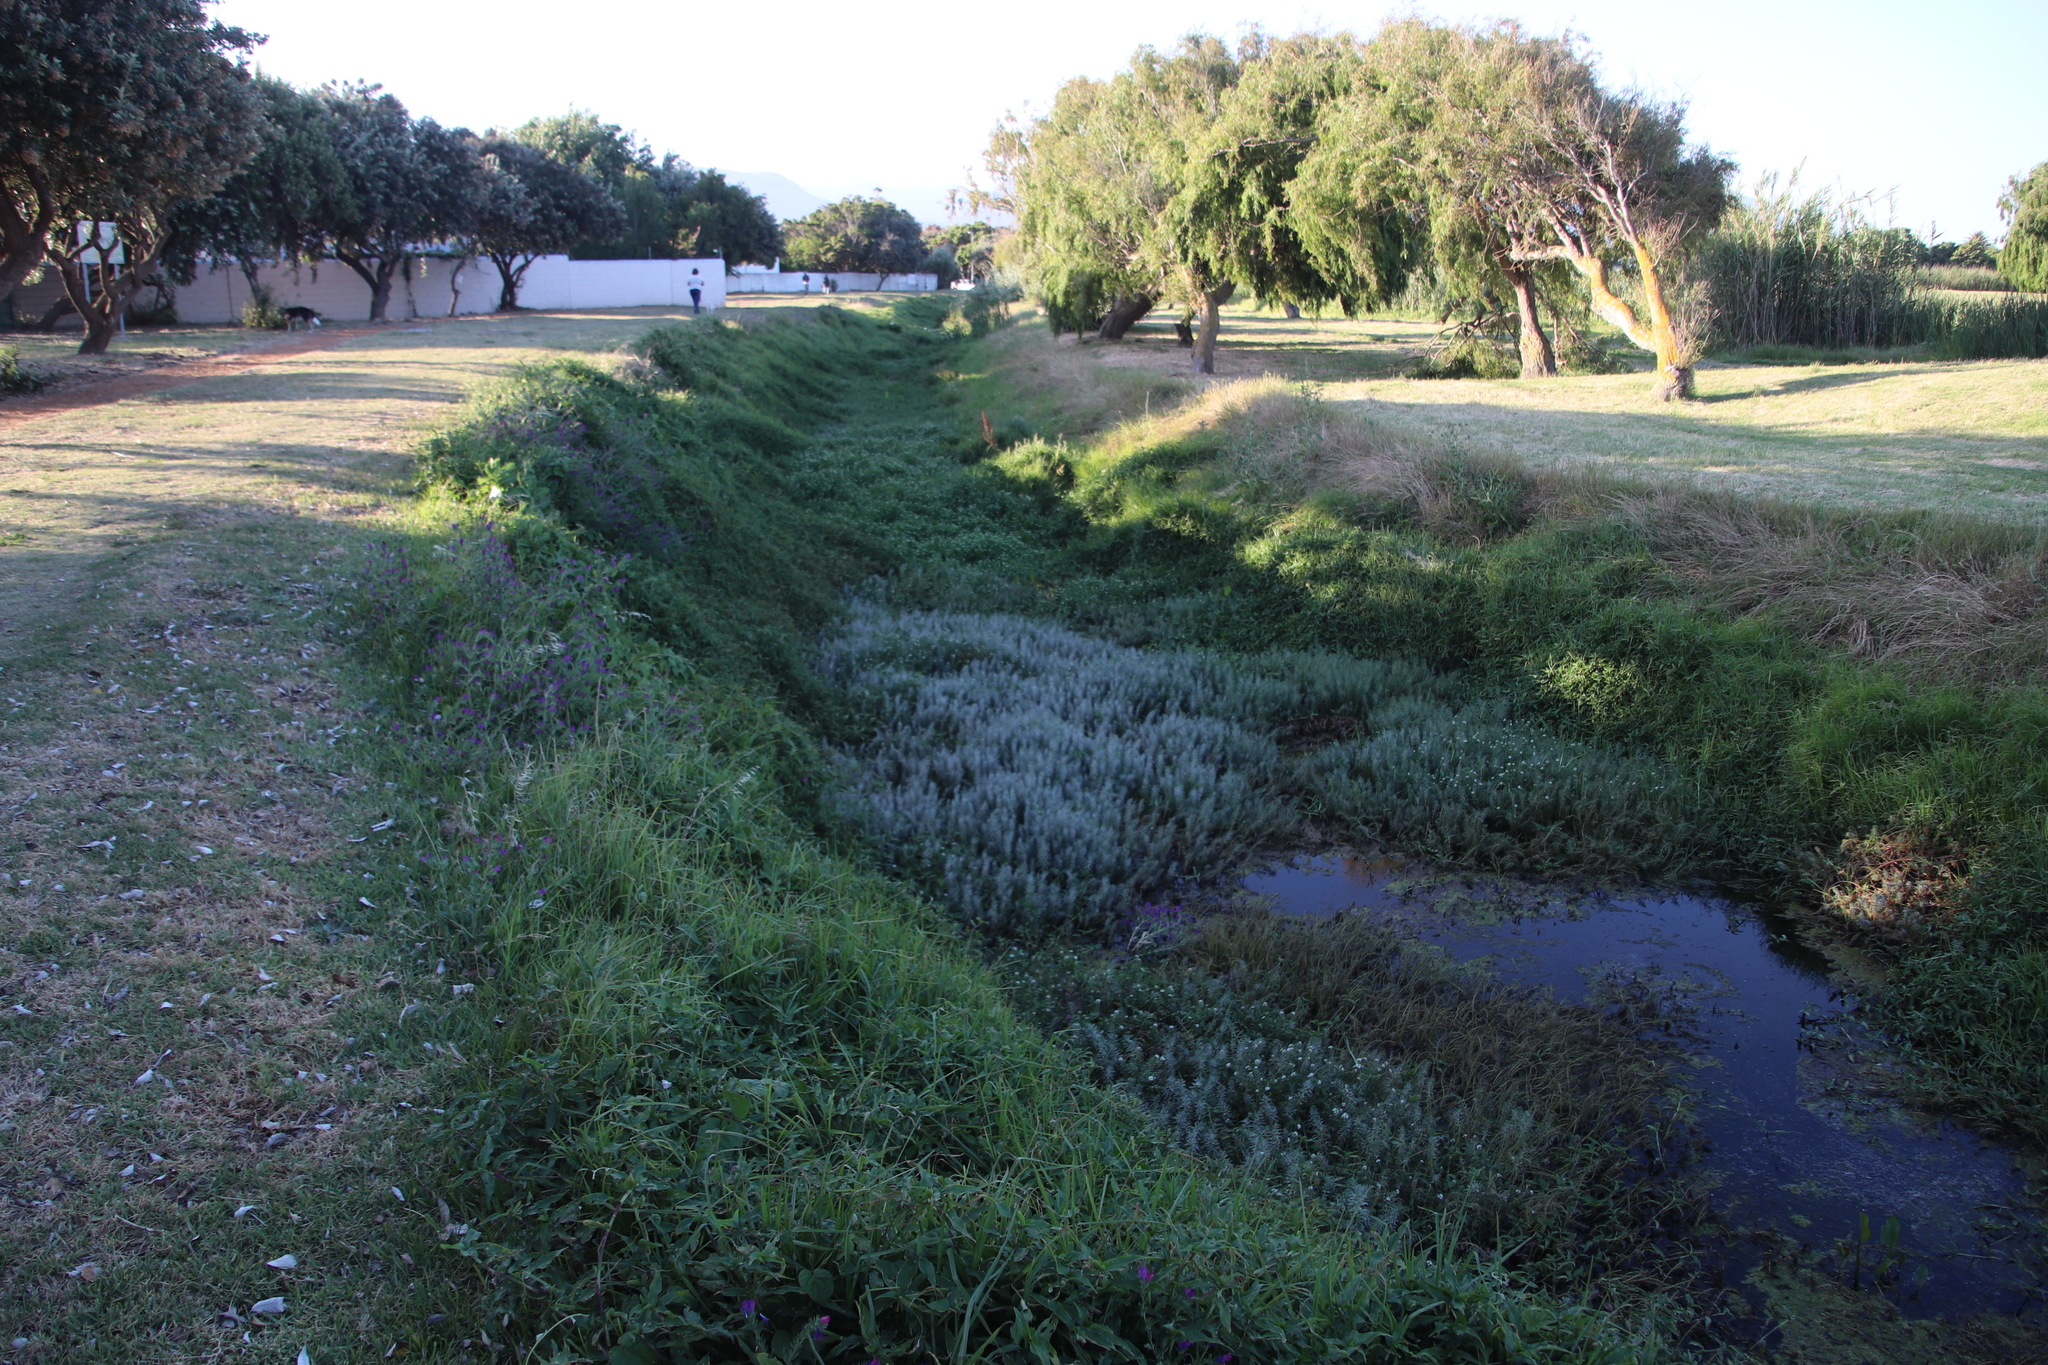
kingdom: Plantae
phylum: Tracheophyta
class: Magnoliopsida
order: Saxifragales
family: Haloragaceae
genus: Myriophyllum
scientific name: Myriophyllum aquaticum
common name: Parrot's feather
